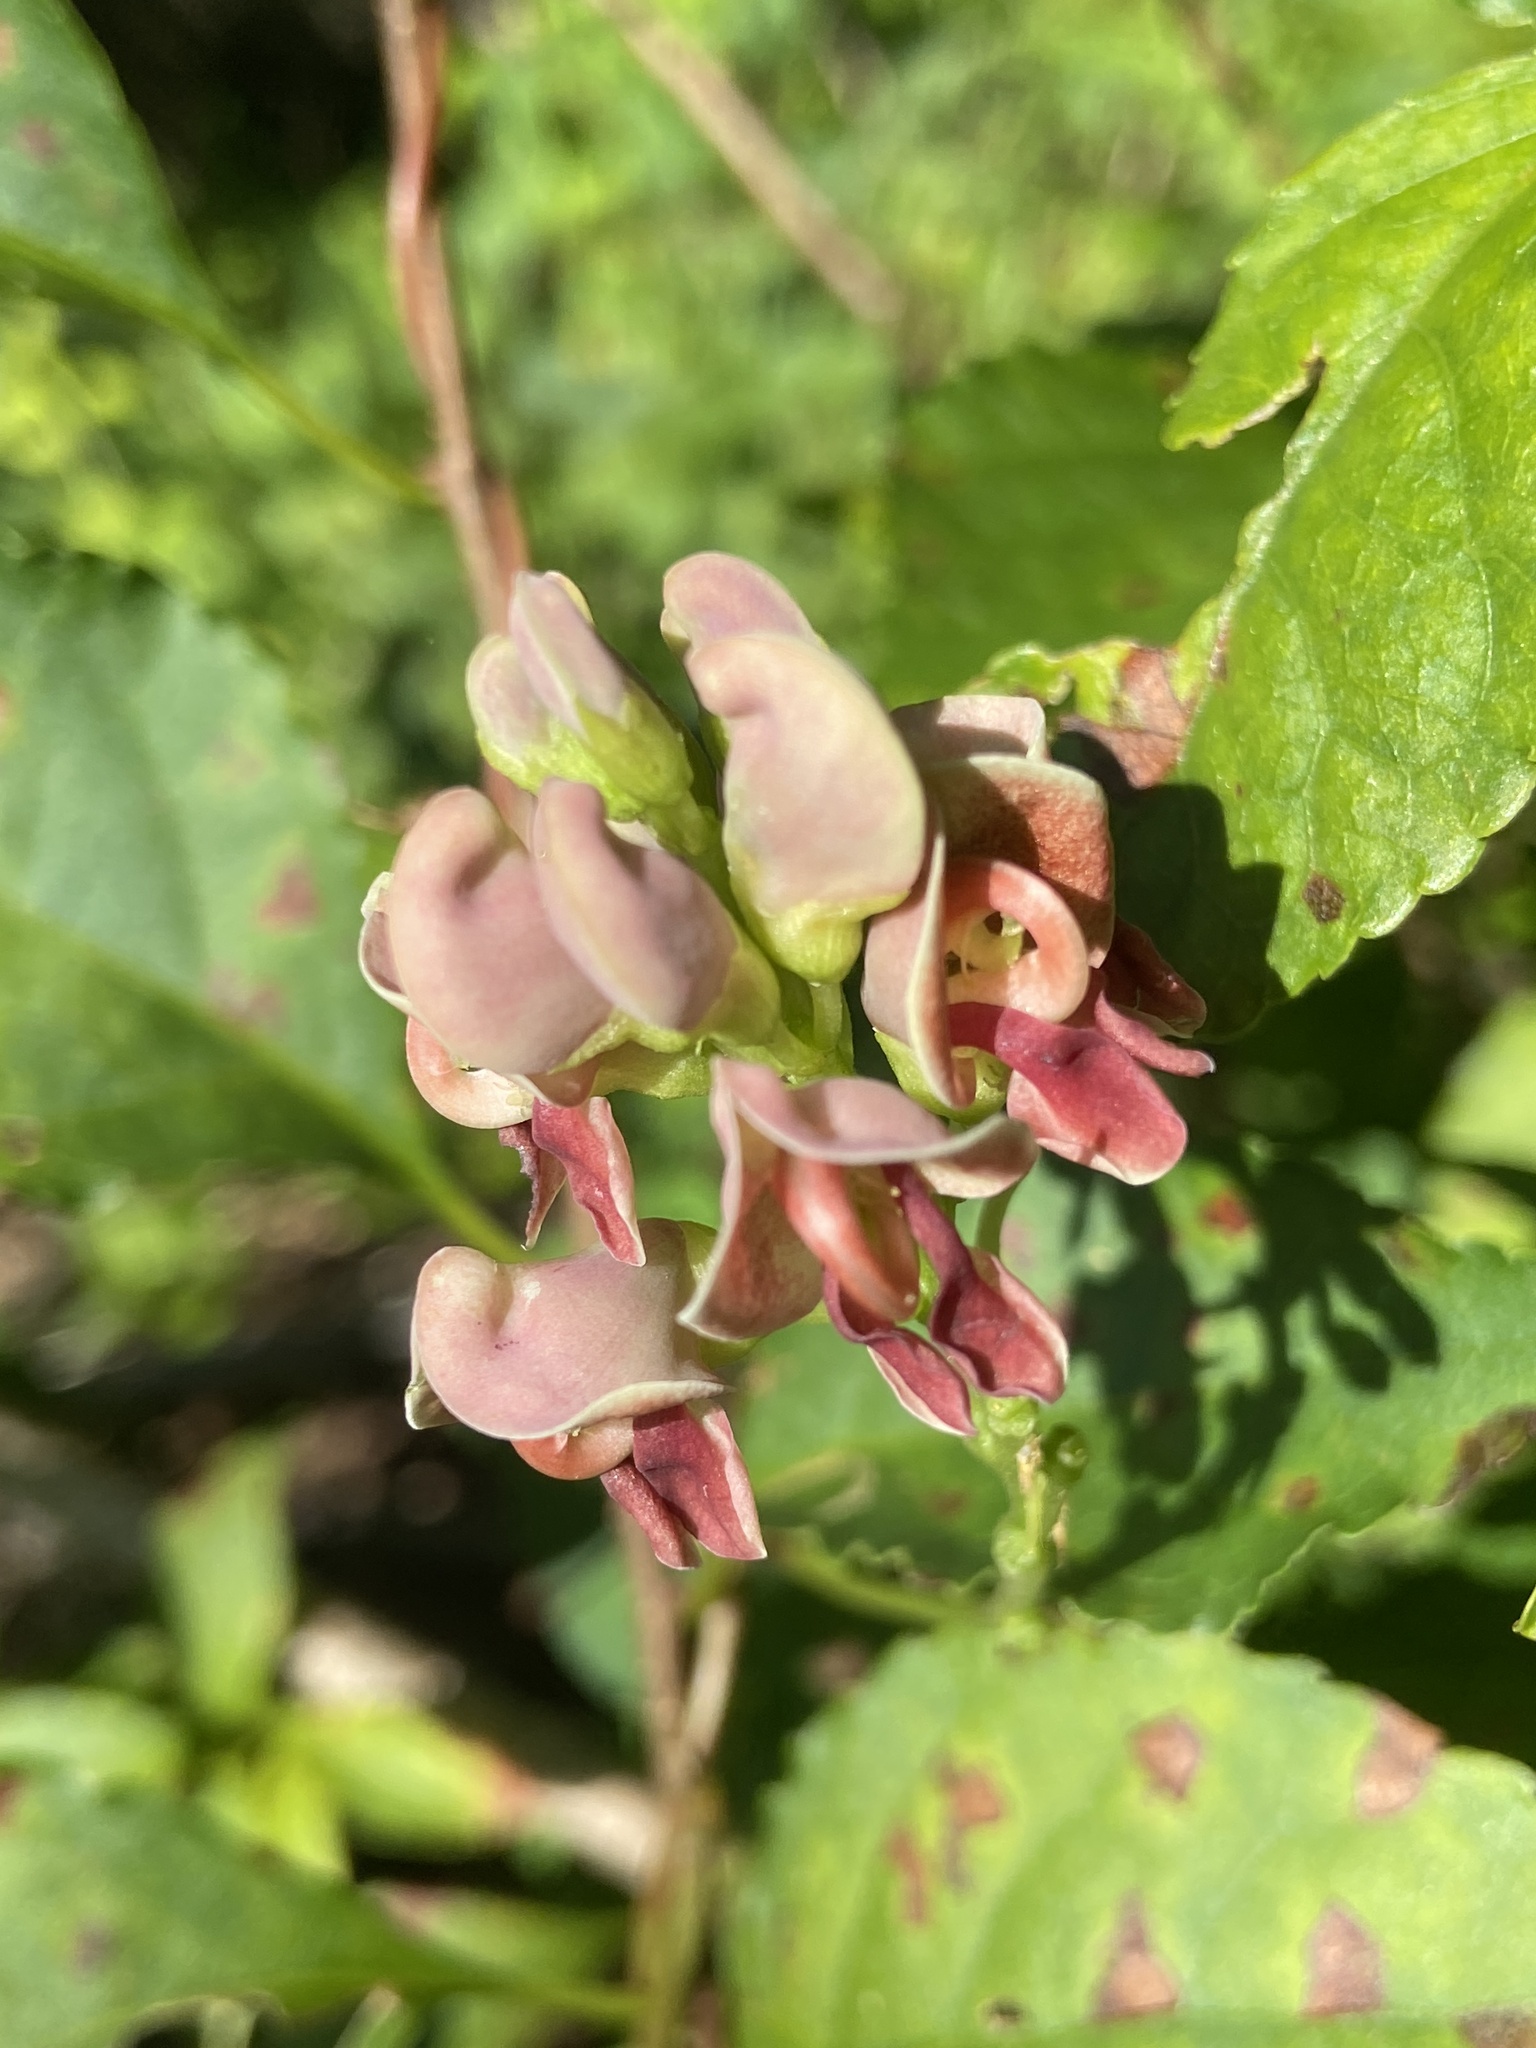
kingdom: Plantae
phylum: Tracheophyta
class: Magnoliopsida
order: Fabales
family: Fabaceae
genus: Apios
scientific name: Apios americana
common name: American potato-bean
